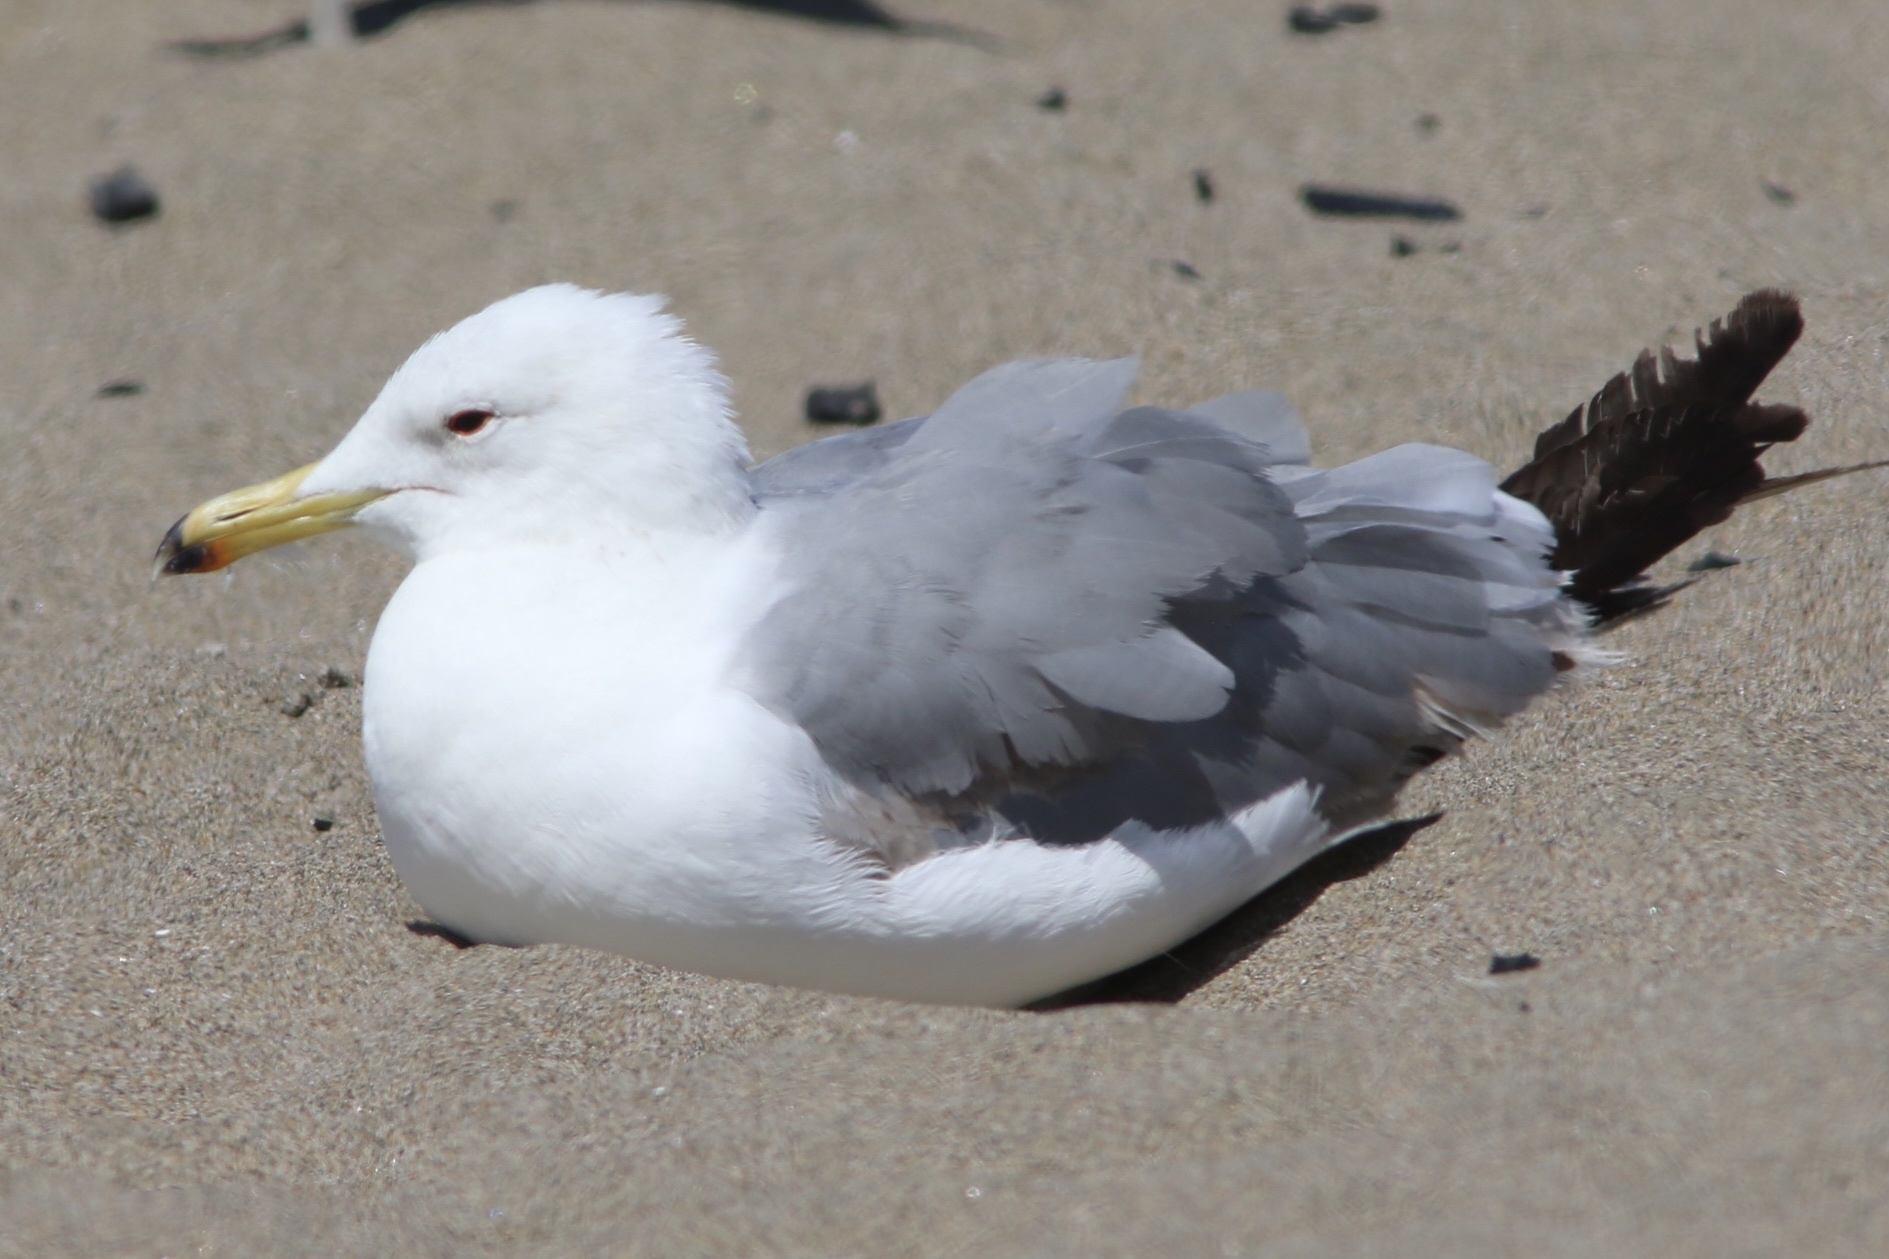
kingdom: Animalia
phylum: Chordata
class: Aves
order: Charadriiformes
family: Laridae
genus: Larus
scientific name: Larus californicus
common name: California gull
